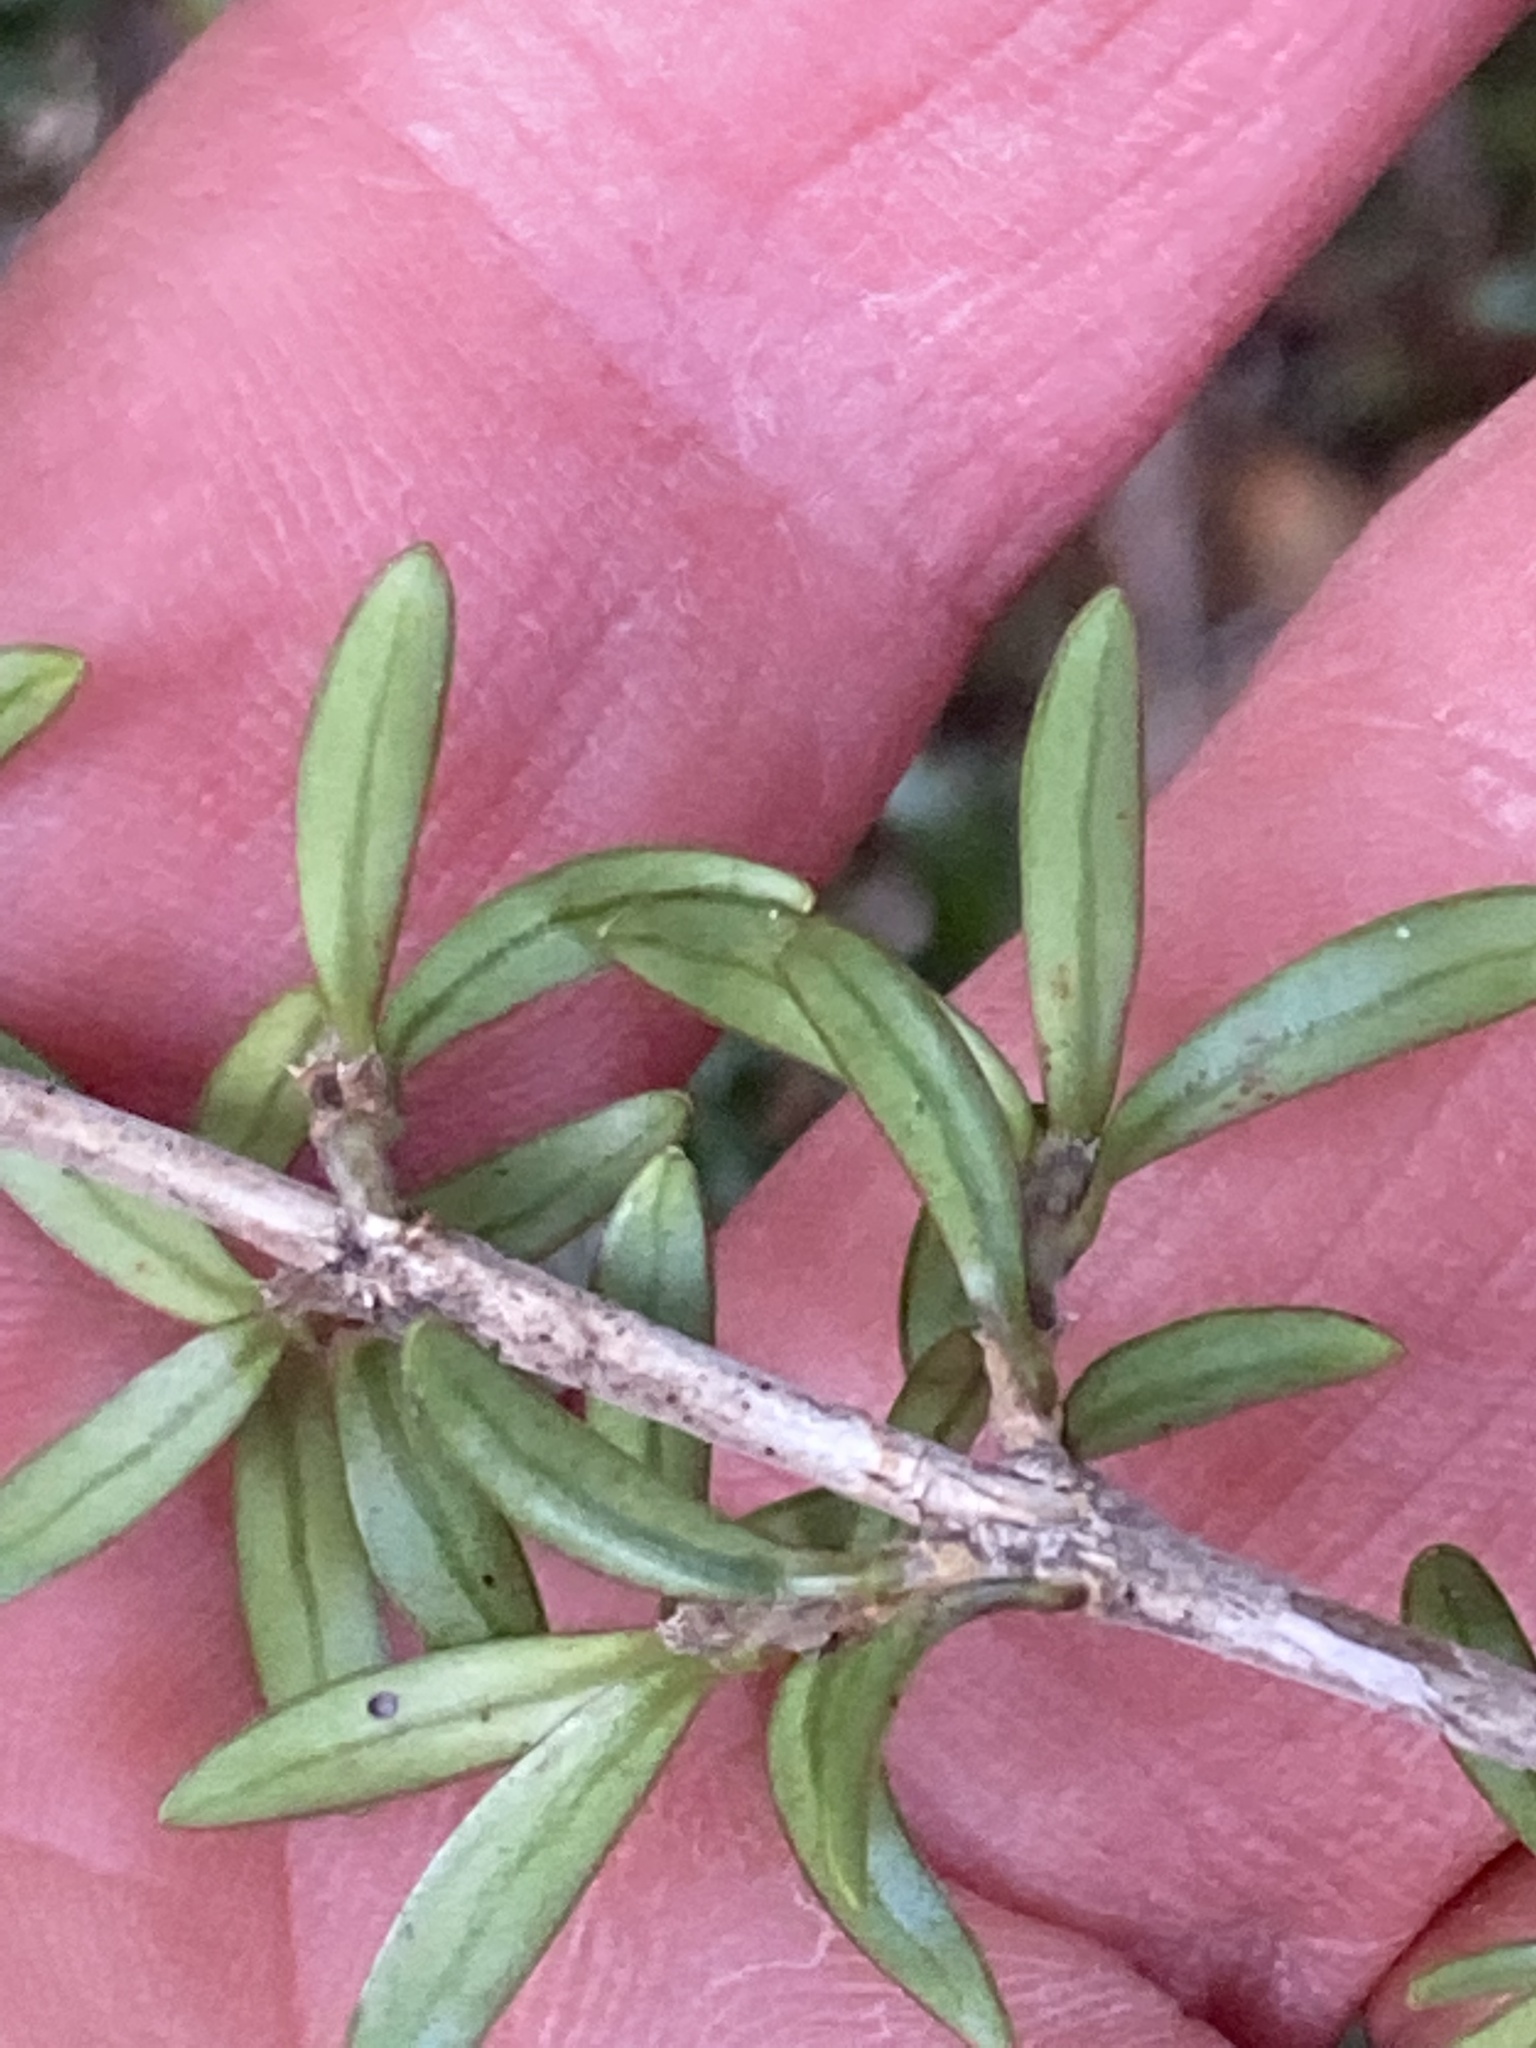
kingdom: Plantae
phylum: Tracheophyta
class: Magnoliopsida
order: Gentianales
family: Rubiaceae
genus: Coprosma
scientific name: Coprosma pseudocuneata
